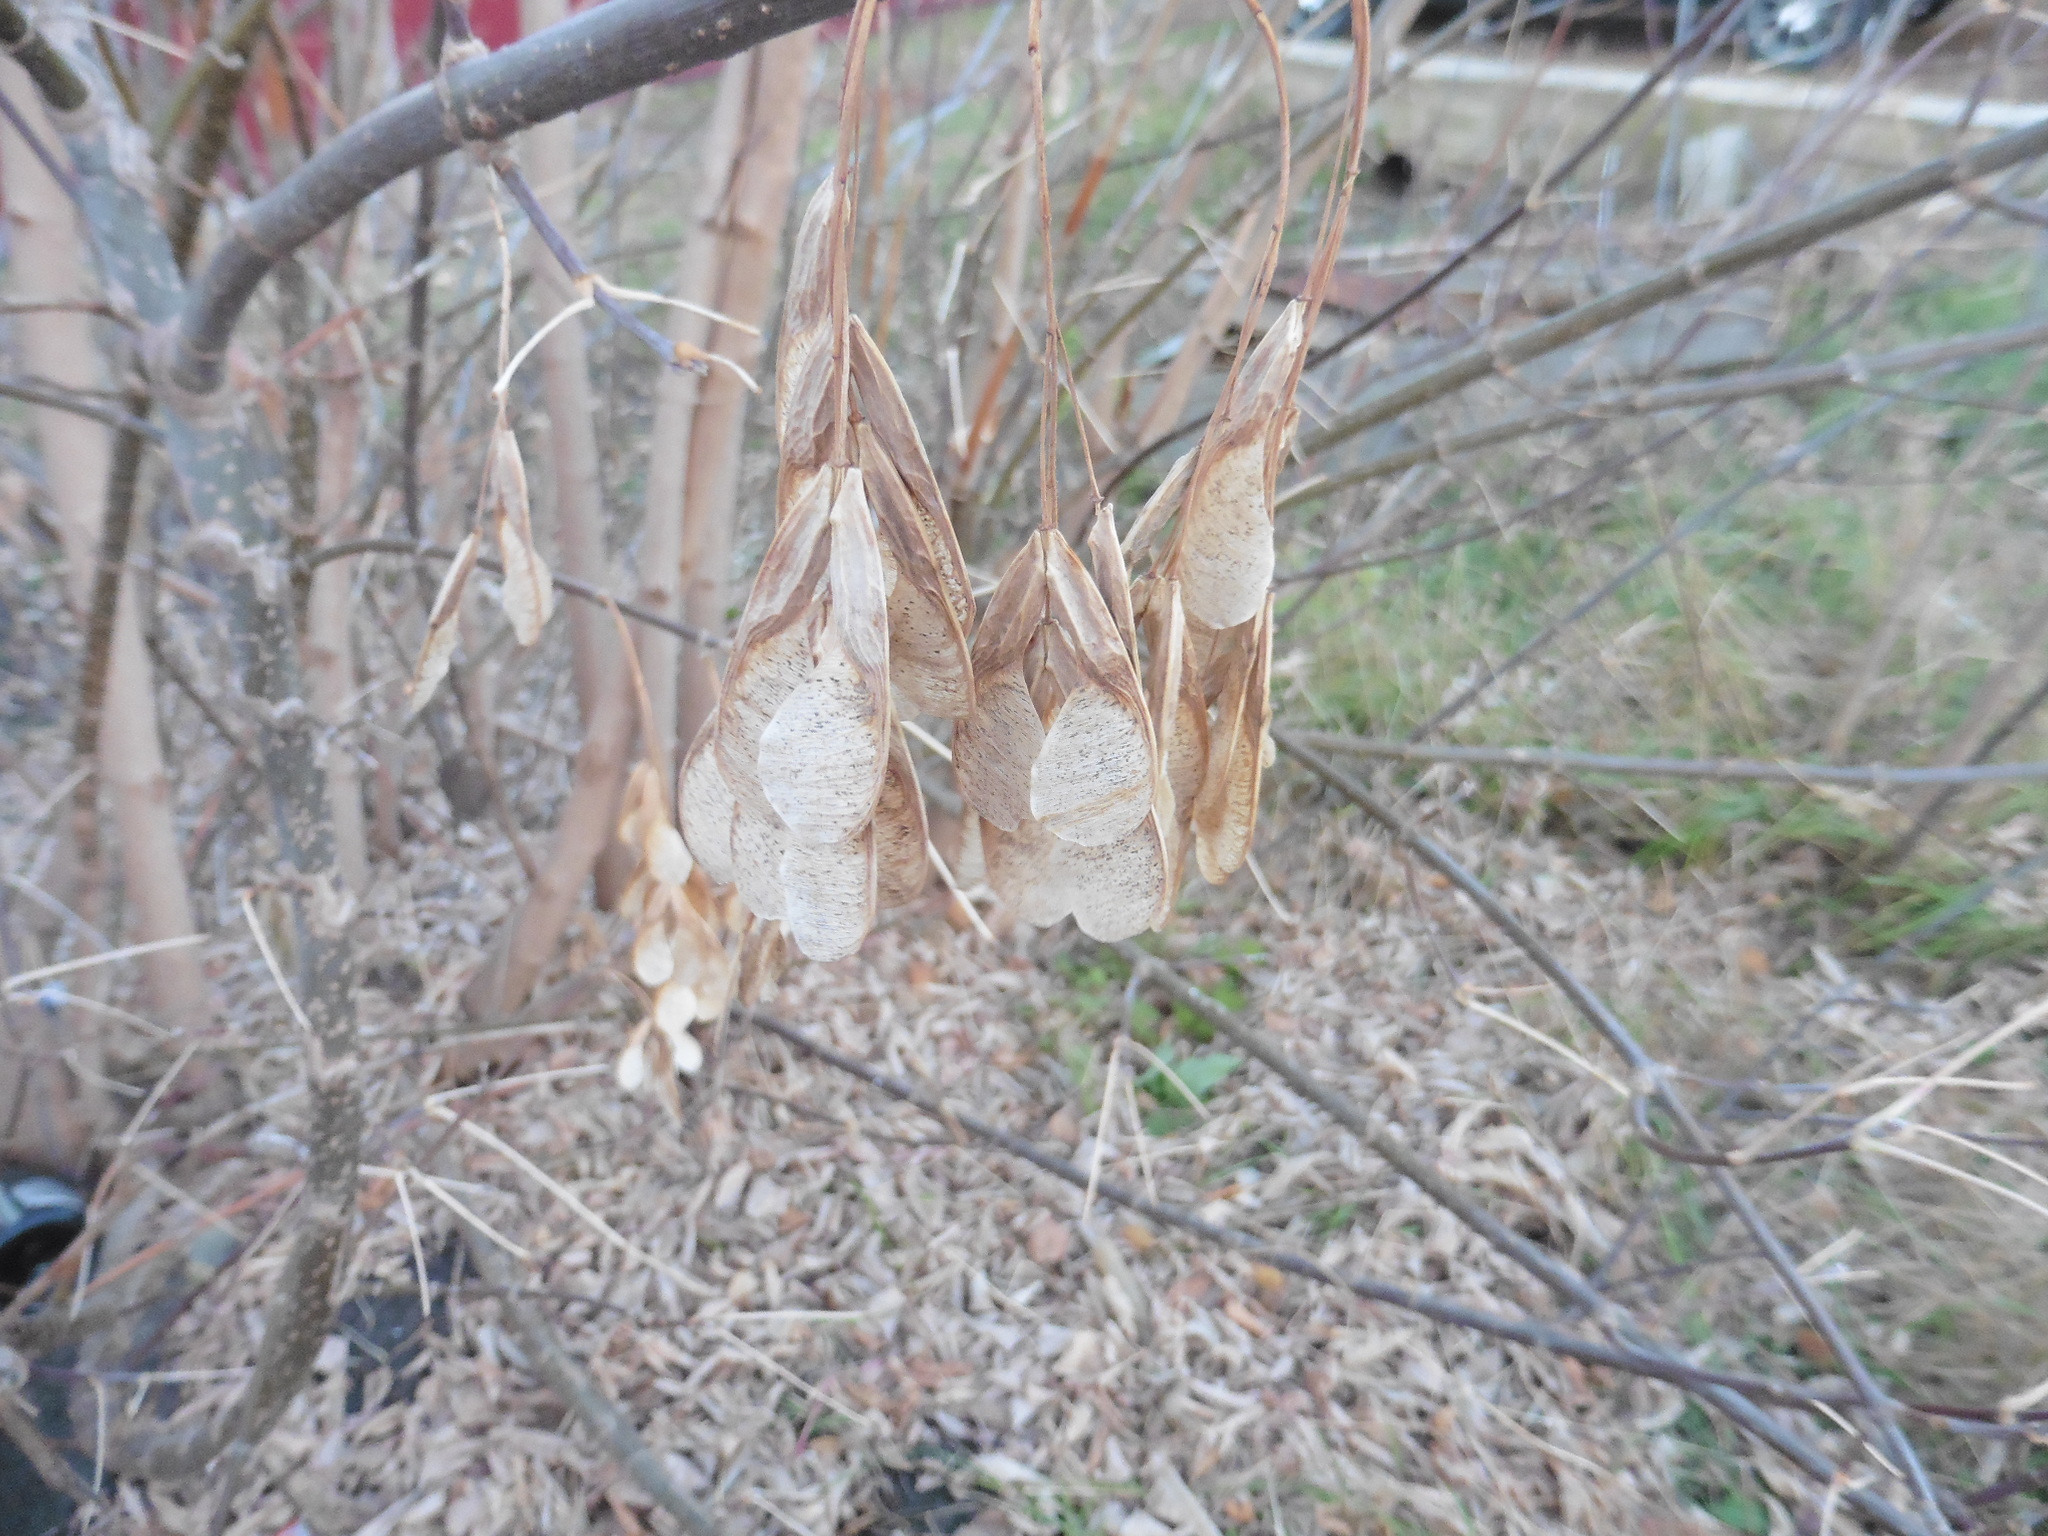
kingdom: Plantae
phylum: Tracheophyta
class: Magnoliopsida
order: Sapindales
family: Sapindaceae
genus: Acer
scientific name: Acer negundo
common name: Ashleaf maple
